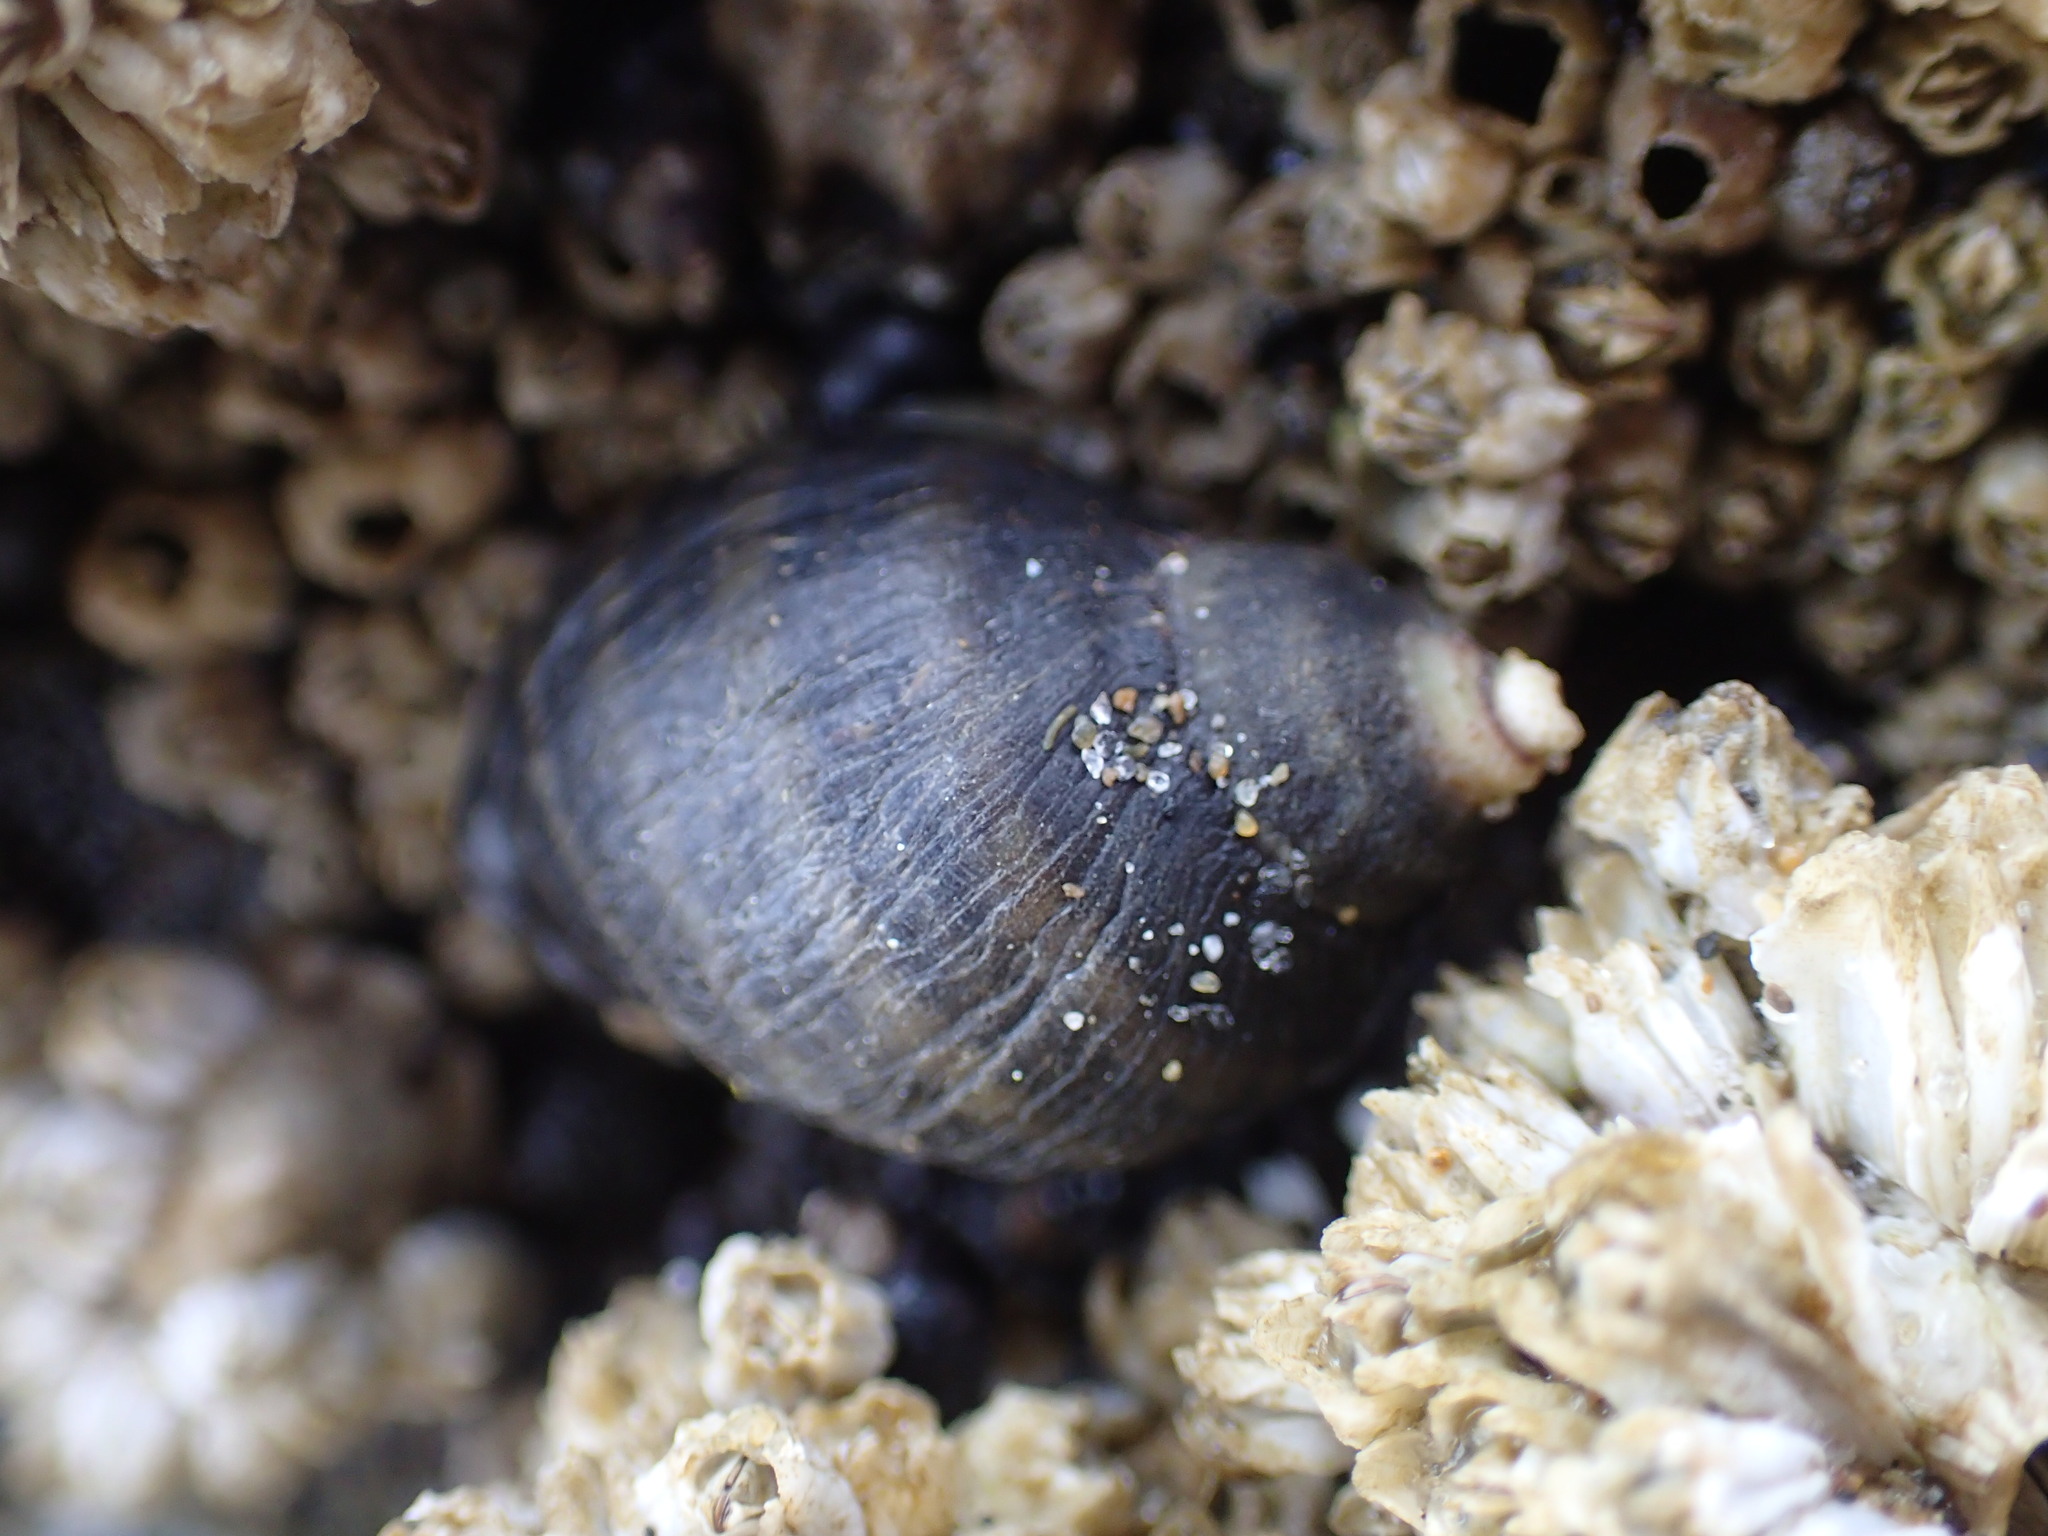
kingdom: Animalia
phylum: Mollusca
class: Gastropoda
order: Neogastropoda
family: Muricidae
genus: Nucella
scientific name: Nucella ostrina
